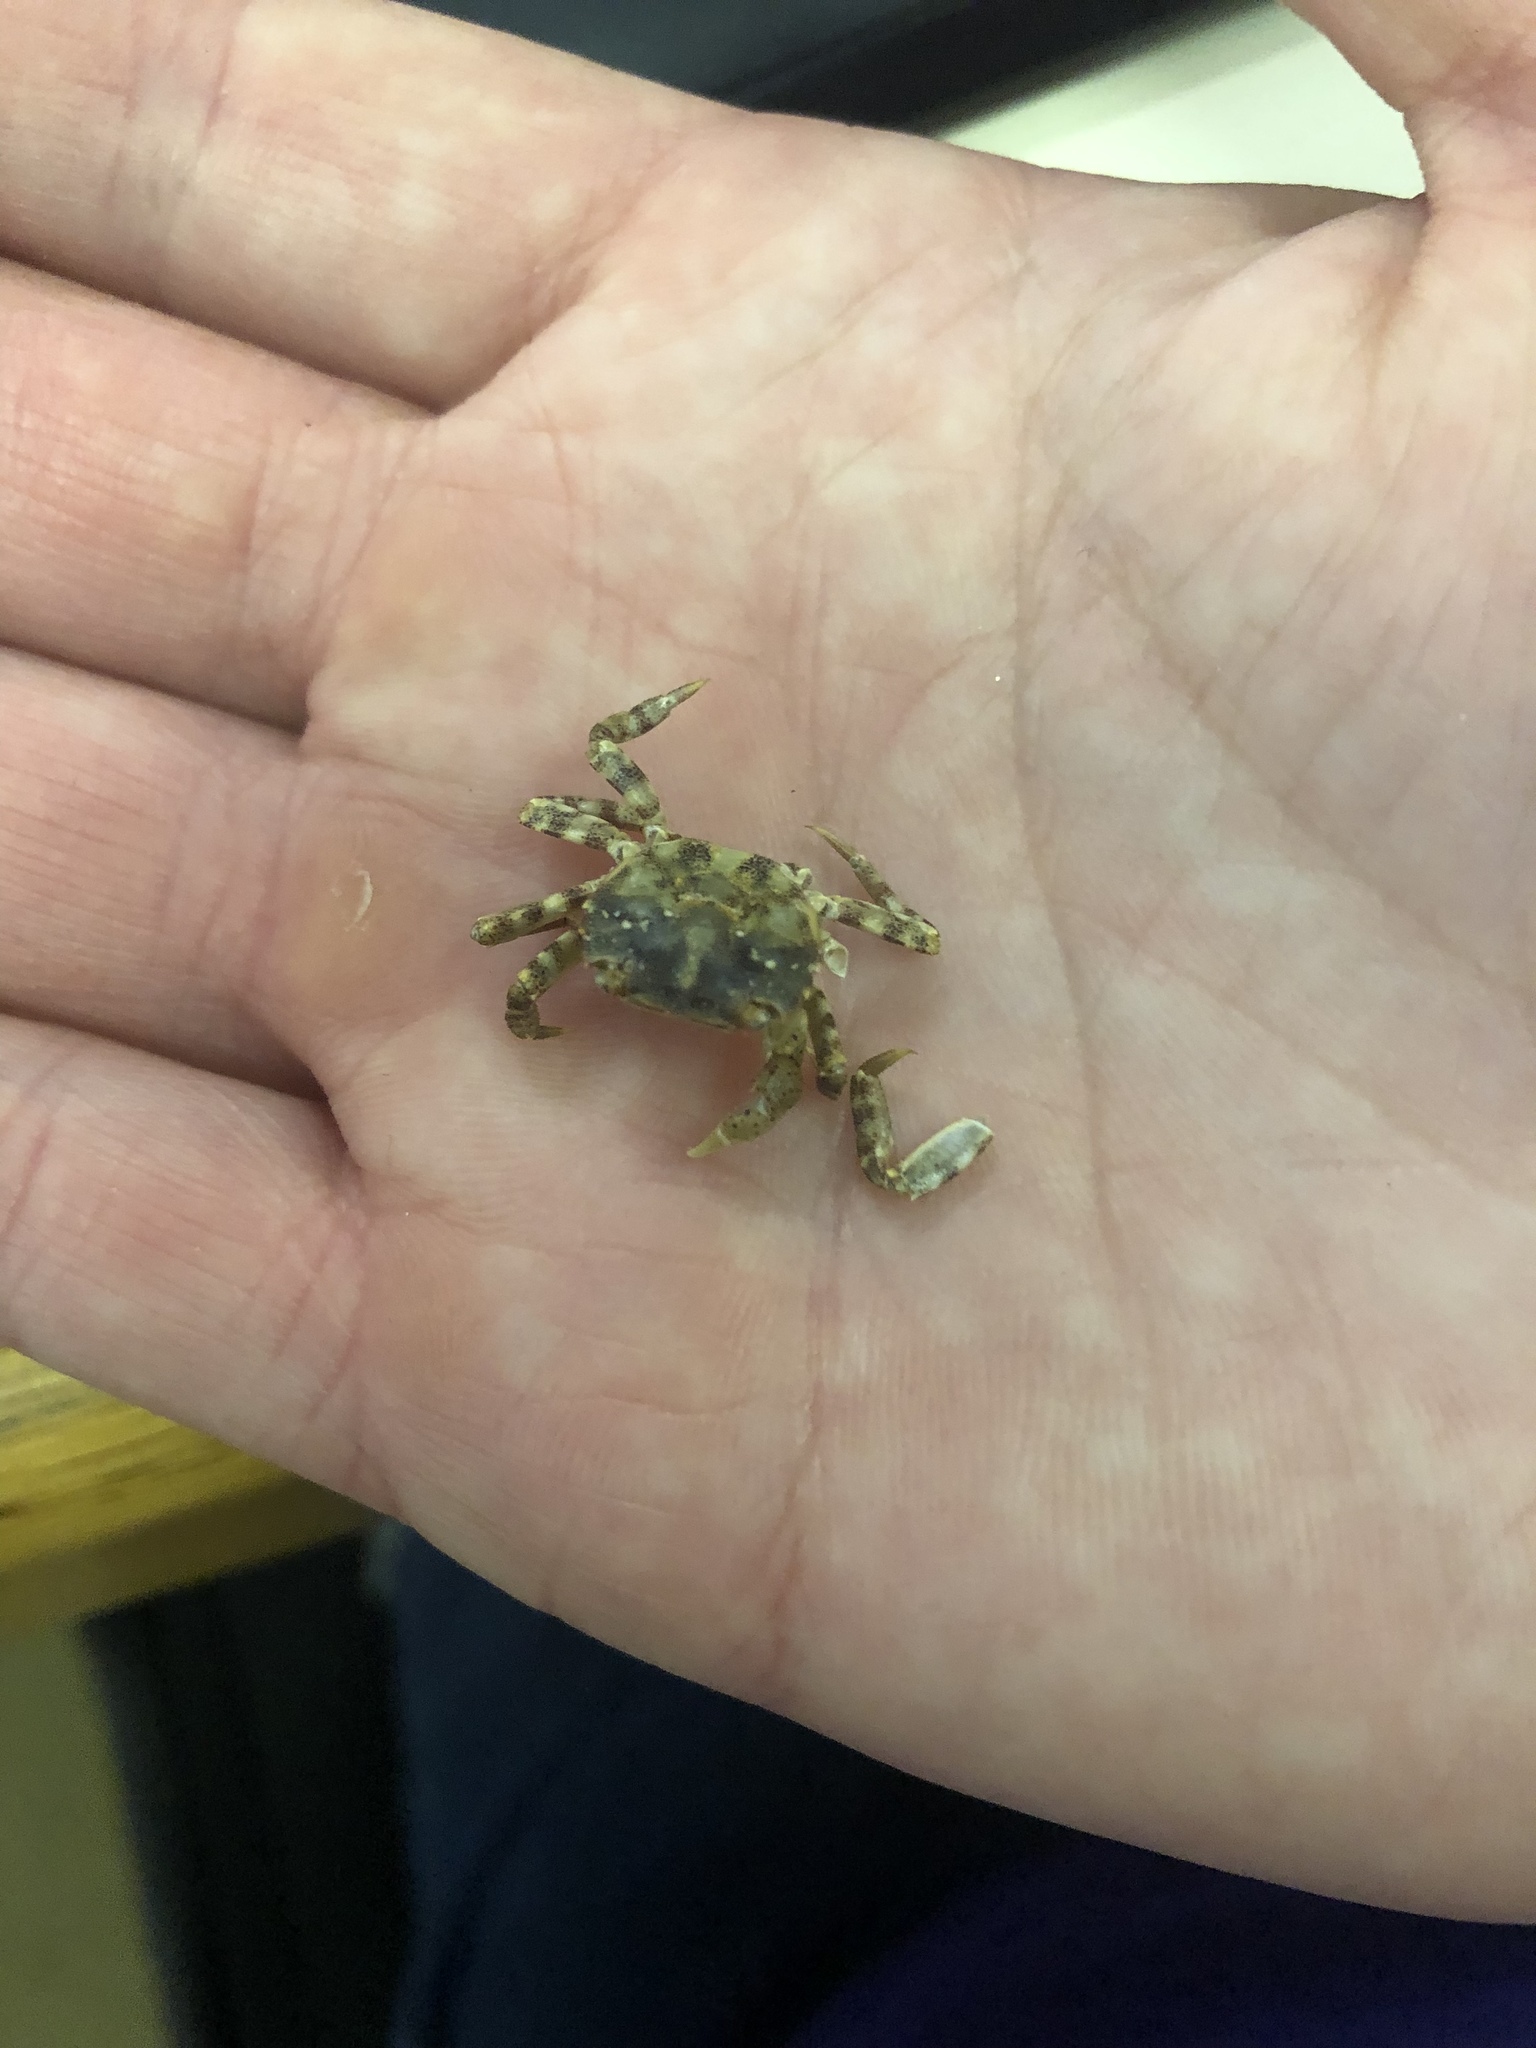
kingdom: Animalia
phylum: Arthropoda
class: Malacostraca
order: Decapoda
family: Varunidae
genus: Hemigrapsus
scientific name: Hemigrapsus sanguineus
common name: Asian shore crab
